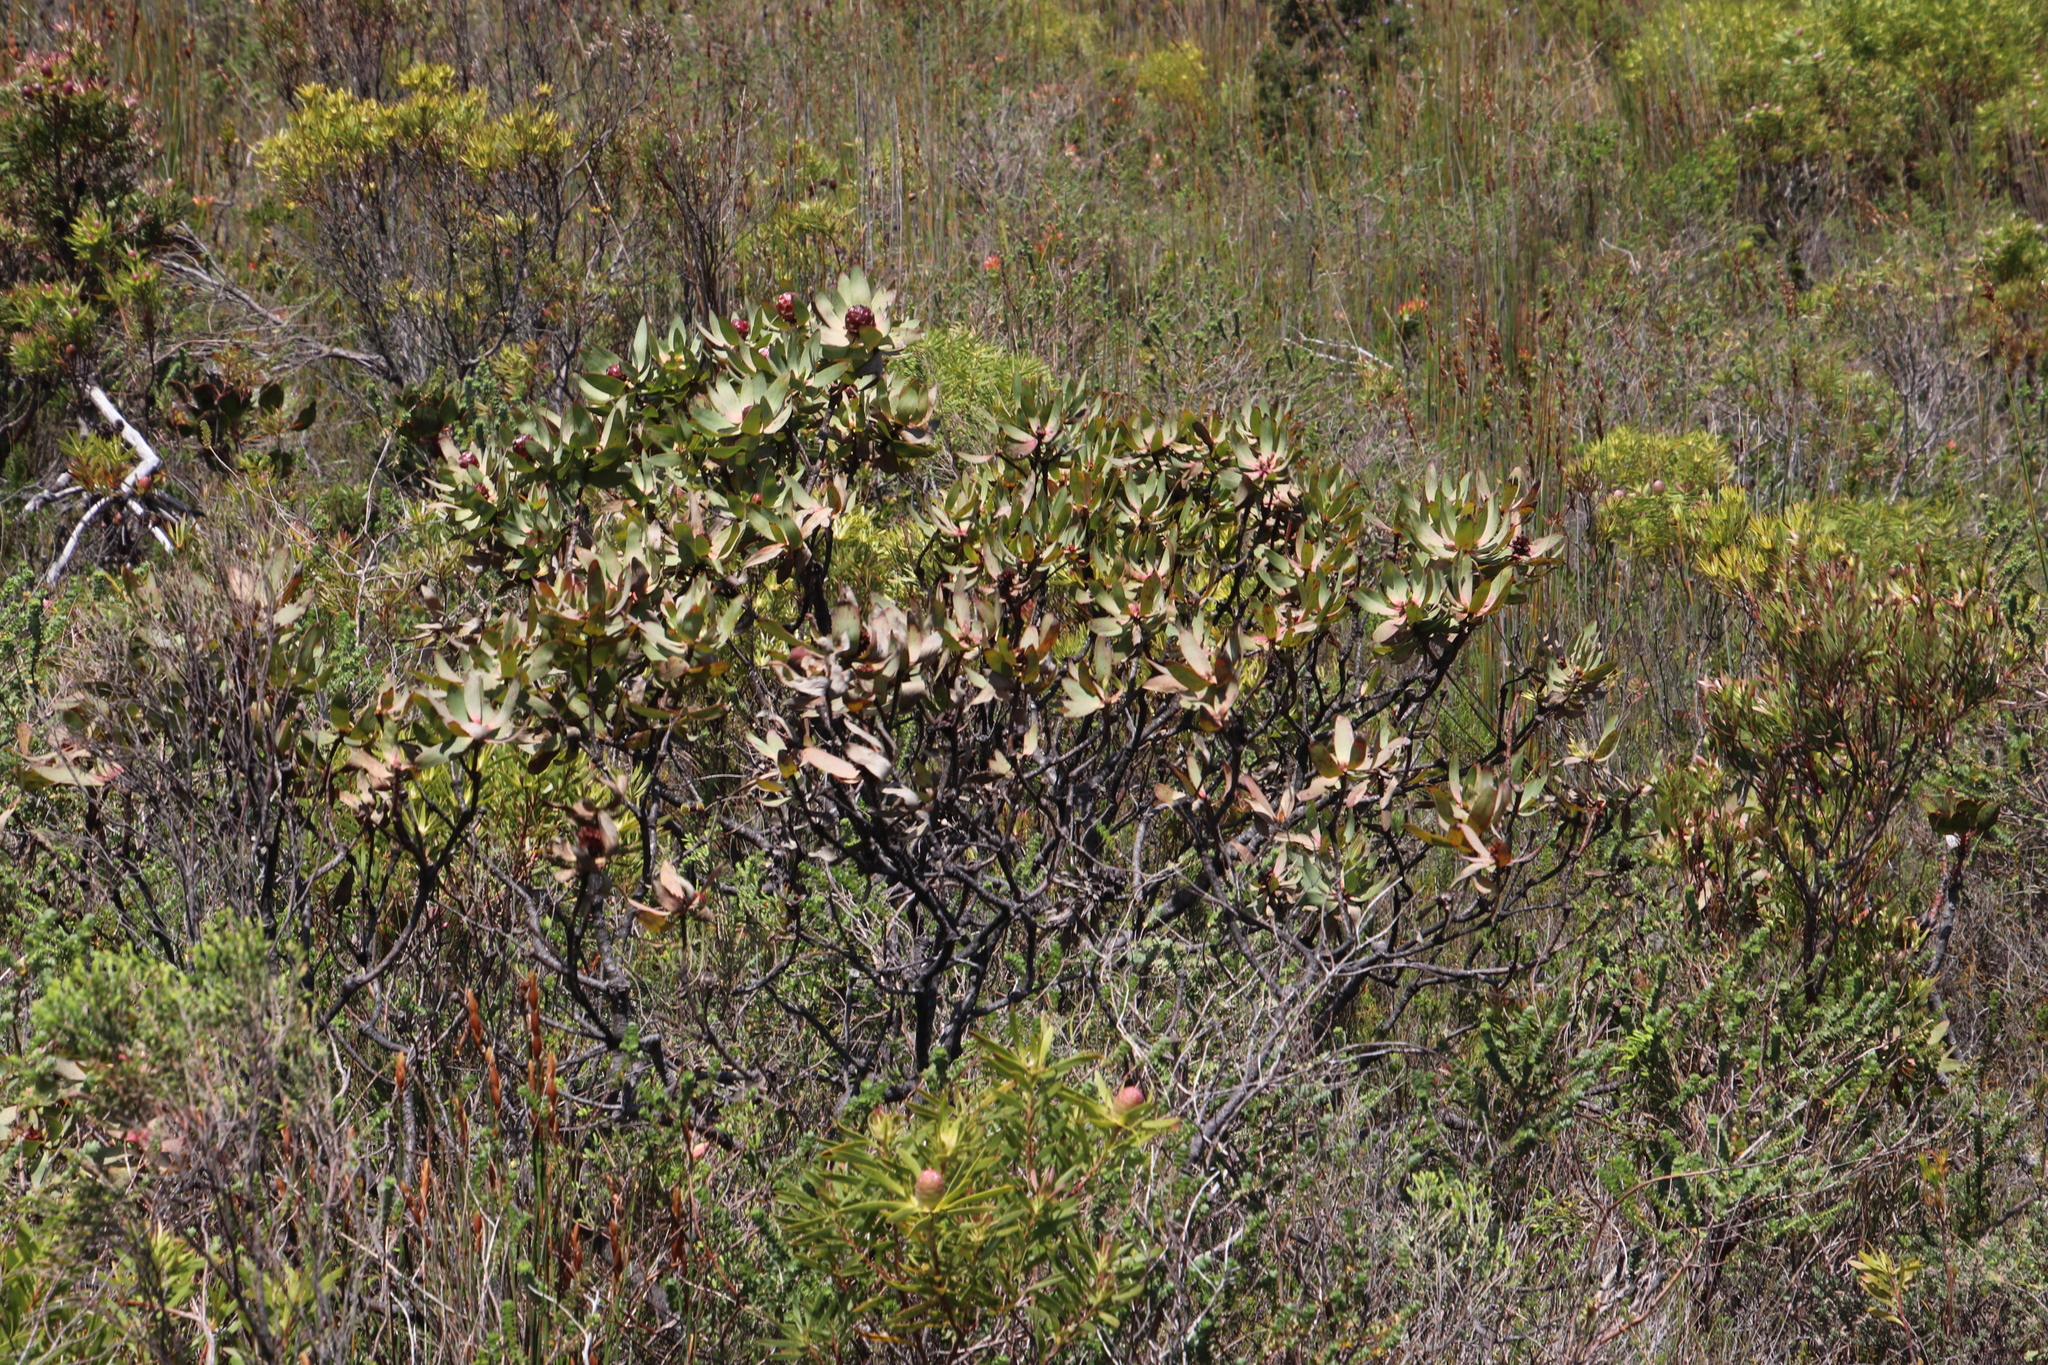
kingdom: Plantae
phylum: Tracheophyta
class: Magnoliopsida
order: Proteales
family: Proteaceae
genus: Leucadendron
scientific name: Leucadendron tinctum
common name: Spicy conebush
